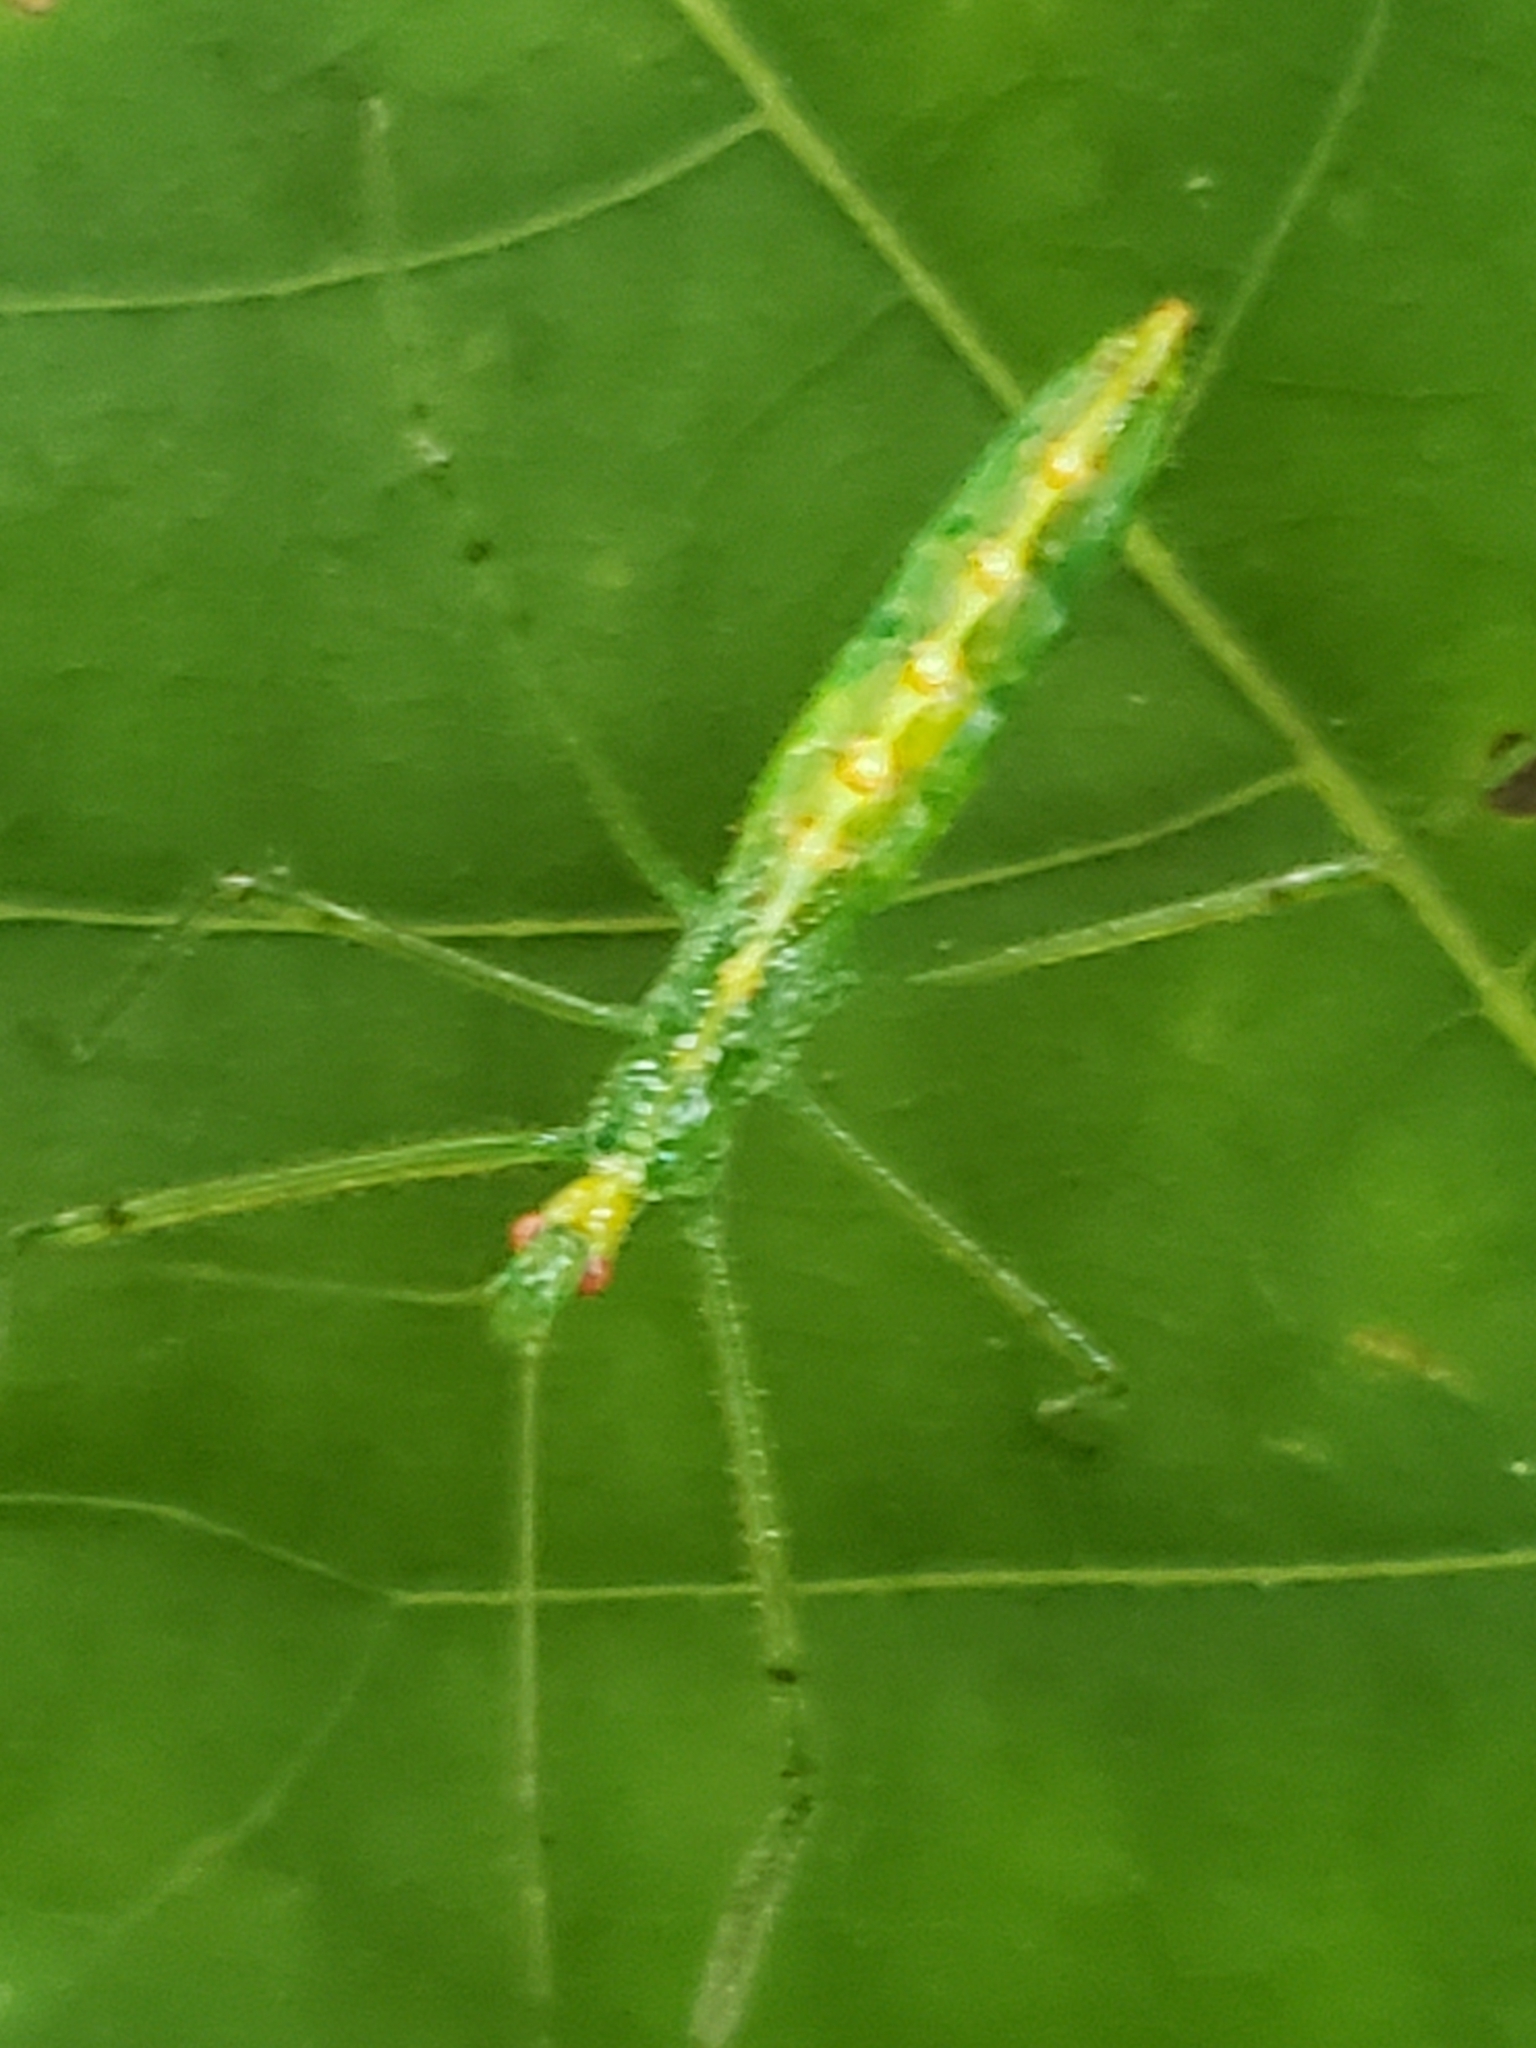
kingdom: Animalia
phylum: Arthropoda
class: Insecta
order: Hemiptera
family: Reduviidae
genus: Zelus
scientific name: Zelus luridus
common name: Pale green assassin bug
